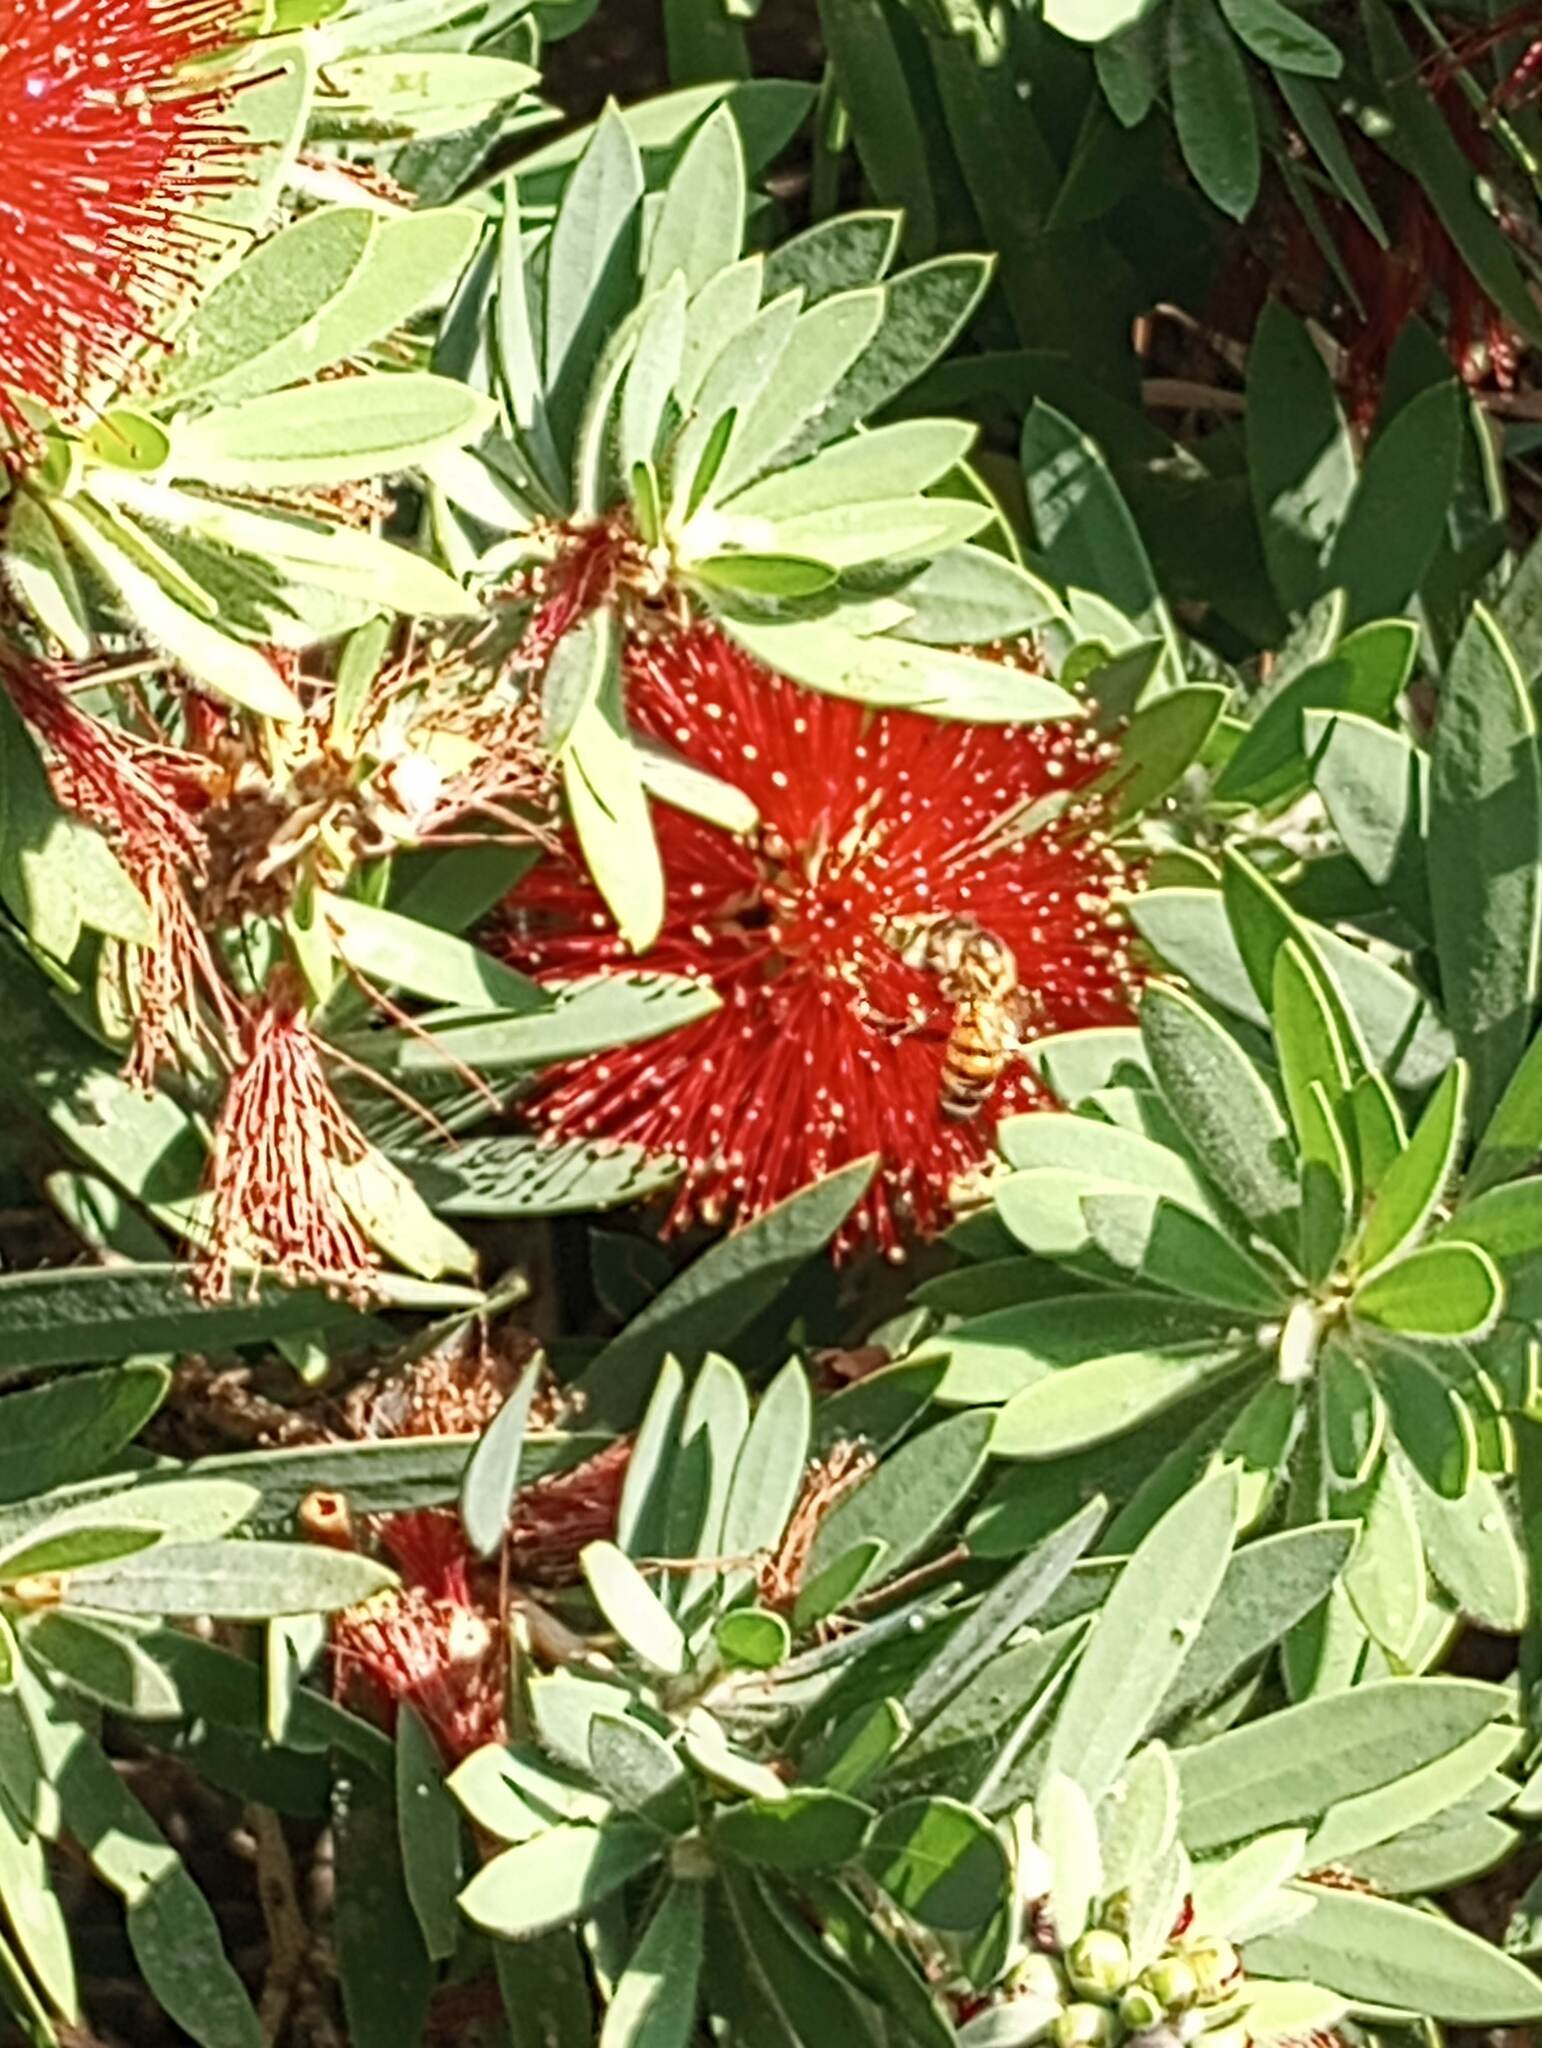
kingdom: Animalia
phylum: Arthropoda
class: Insecta
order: Hymenoptera
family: Apidae
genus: Apis
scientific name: Apis mellifera
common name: Honey bee
